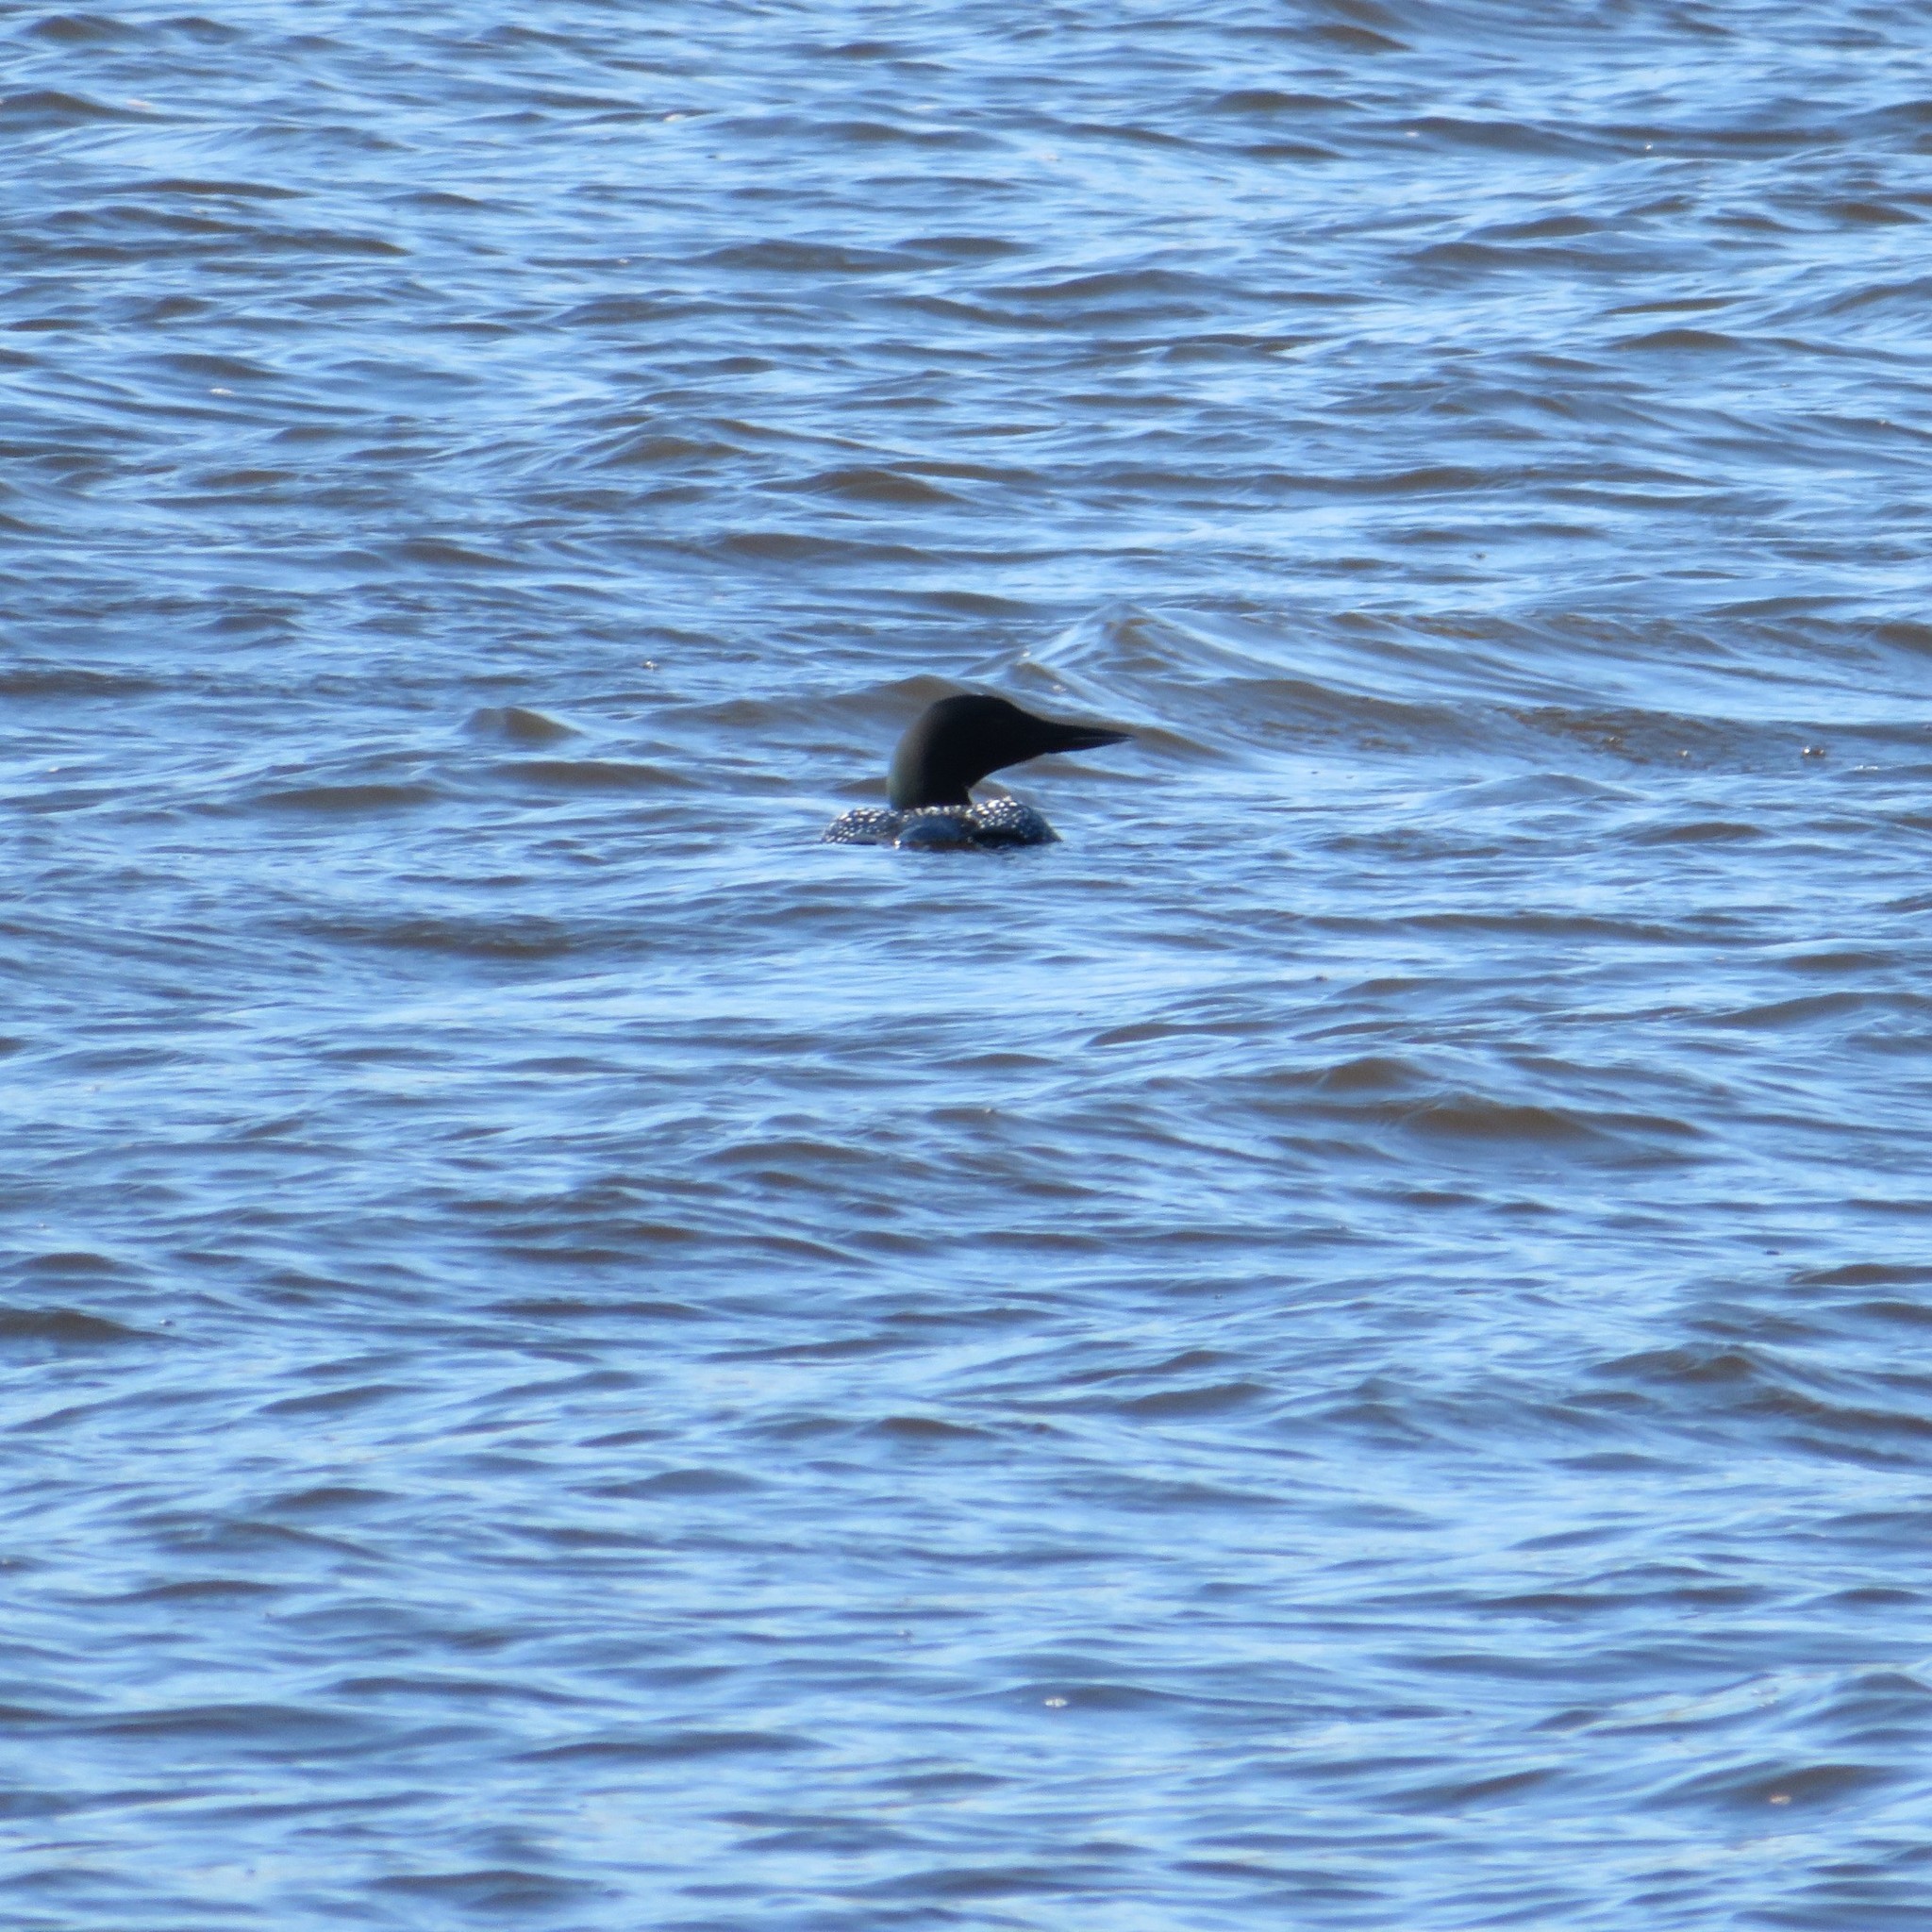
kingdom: Animalia
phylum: Chordata
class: Aves
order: Gaviiformes
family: Gaviidae
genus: Gavia
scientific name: Gavia immer
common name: Common loon
